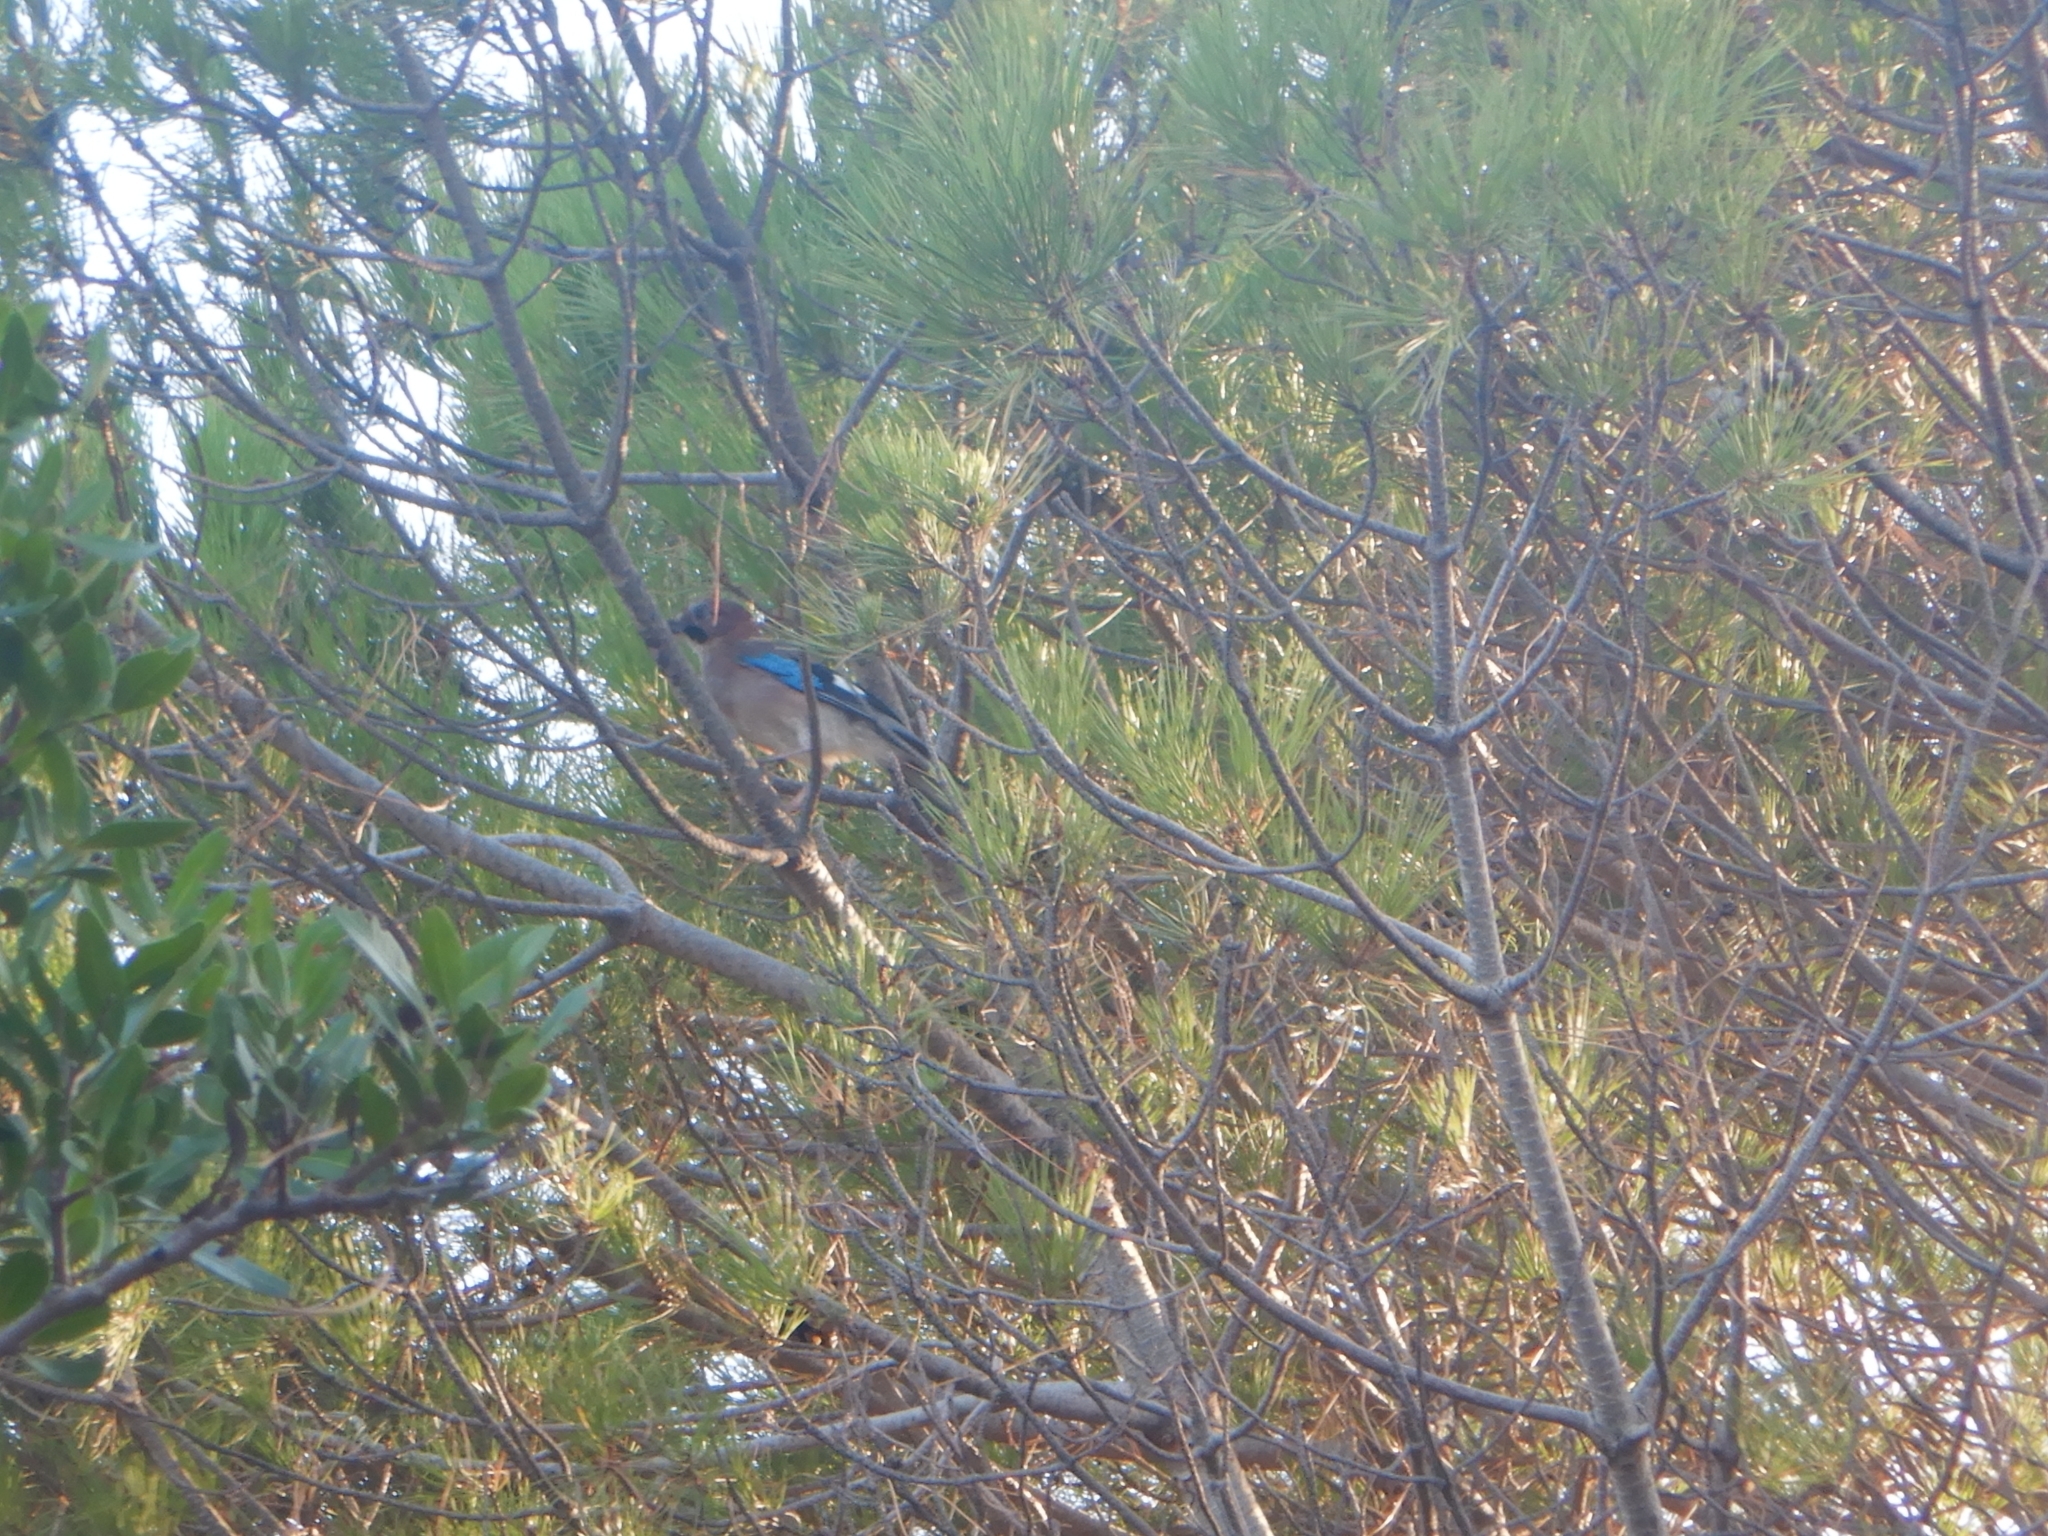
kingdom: Animalia
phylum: Chordata
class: Aves
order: Passeriformes
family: Corvidae
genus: Garrulus
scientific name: Garrulus glandarius
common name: Eurasian jay
